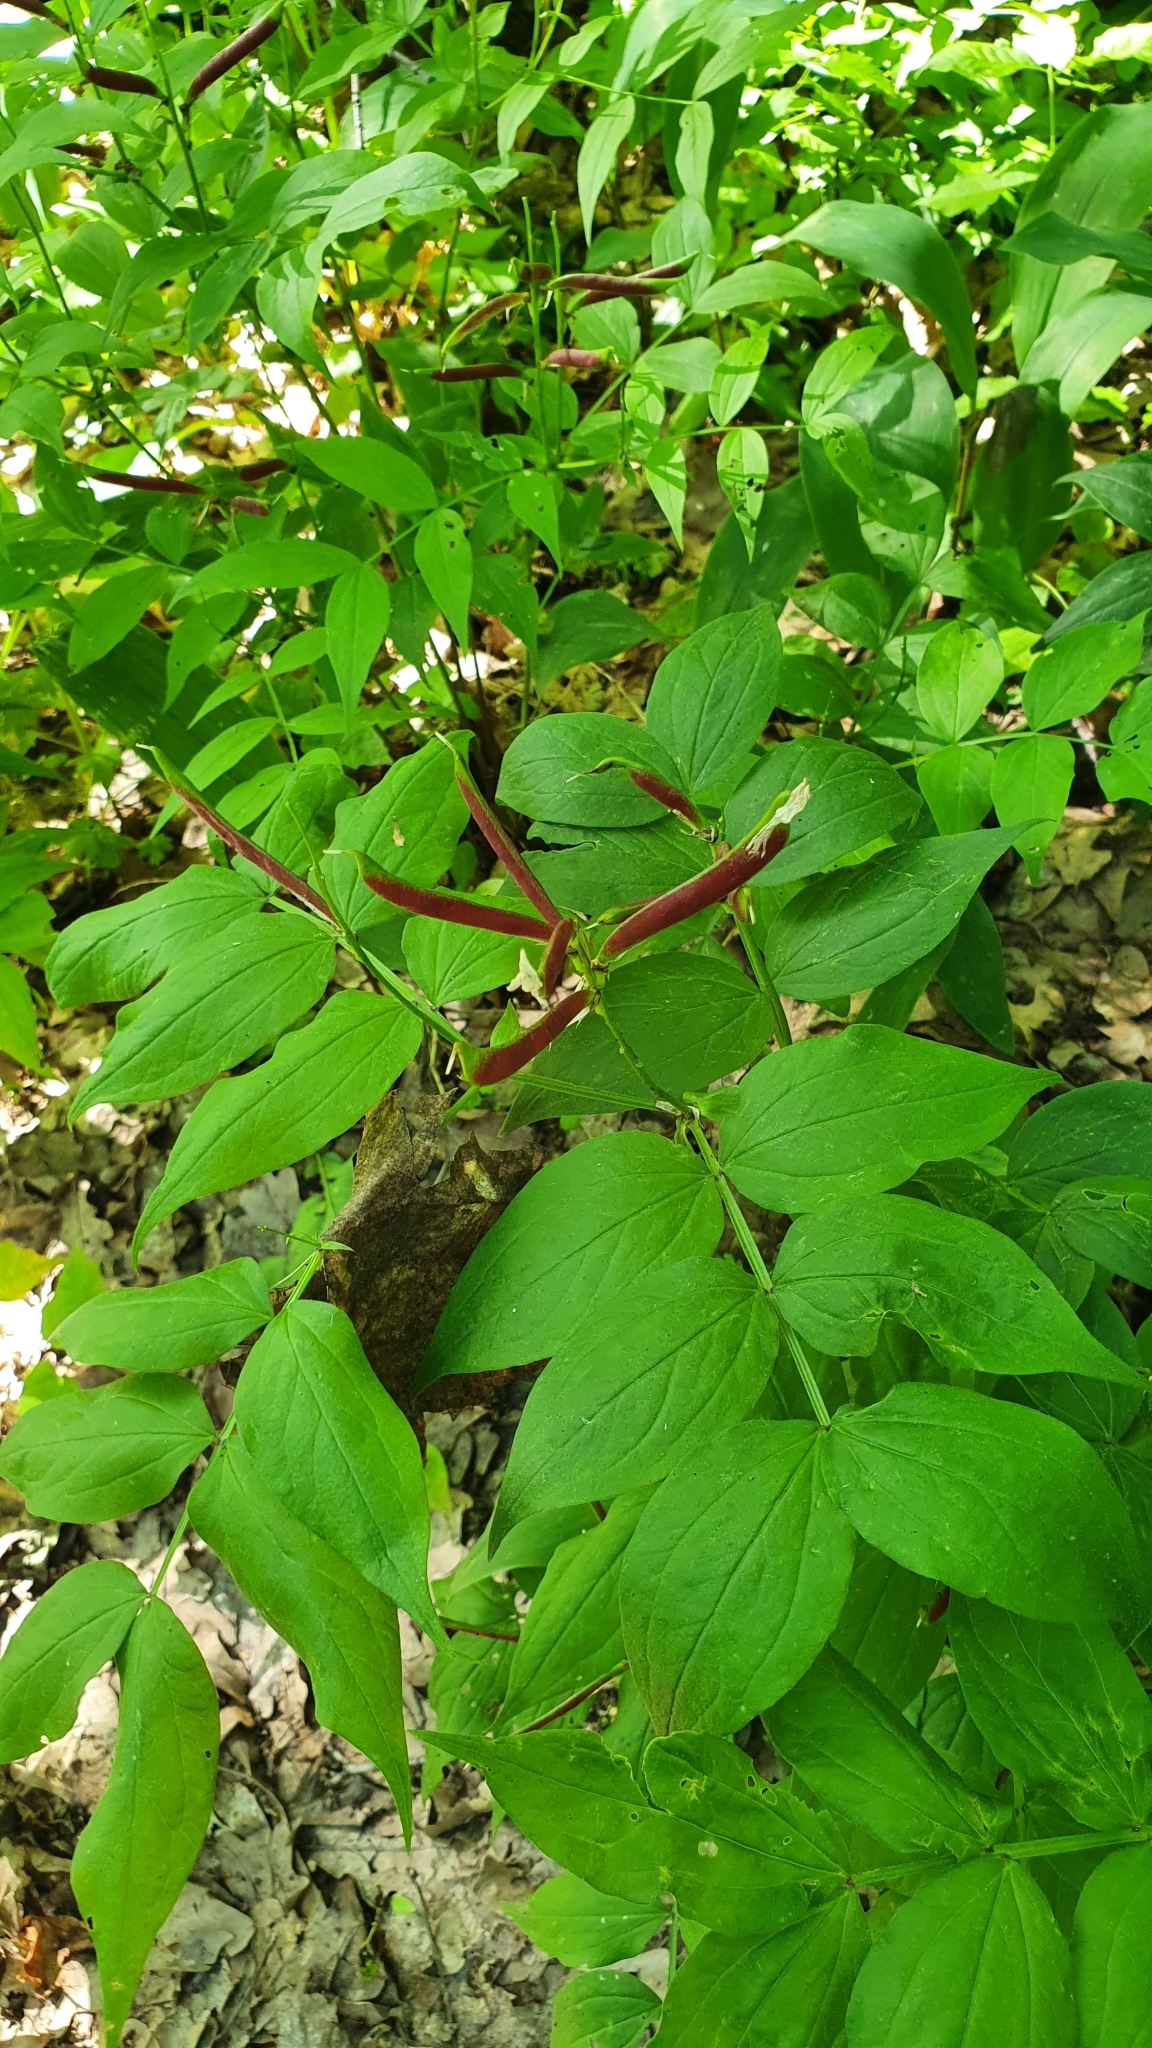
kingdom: Plantae
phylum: Tracheophyta
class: Magnoliopsida
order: Fabales
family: Fabaceae
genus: Lathyrus
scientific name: Lathyrus vernus
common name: Spring pea
